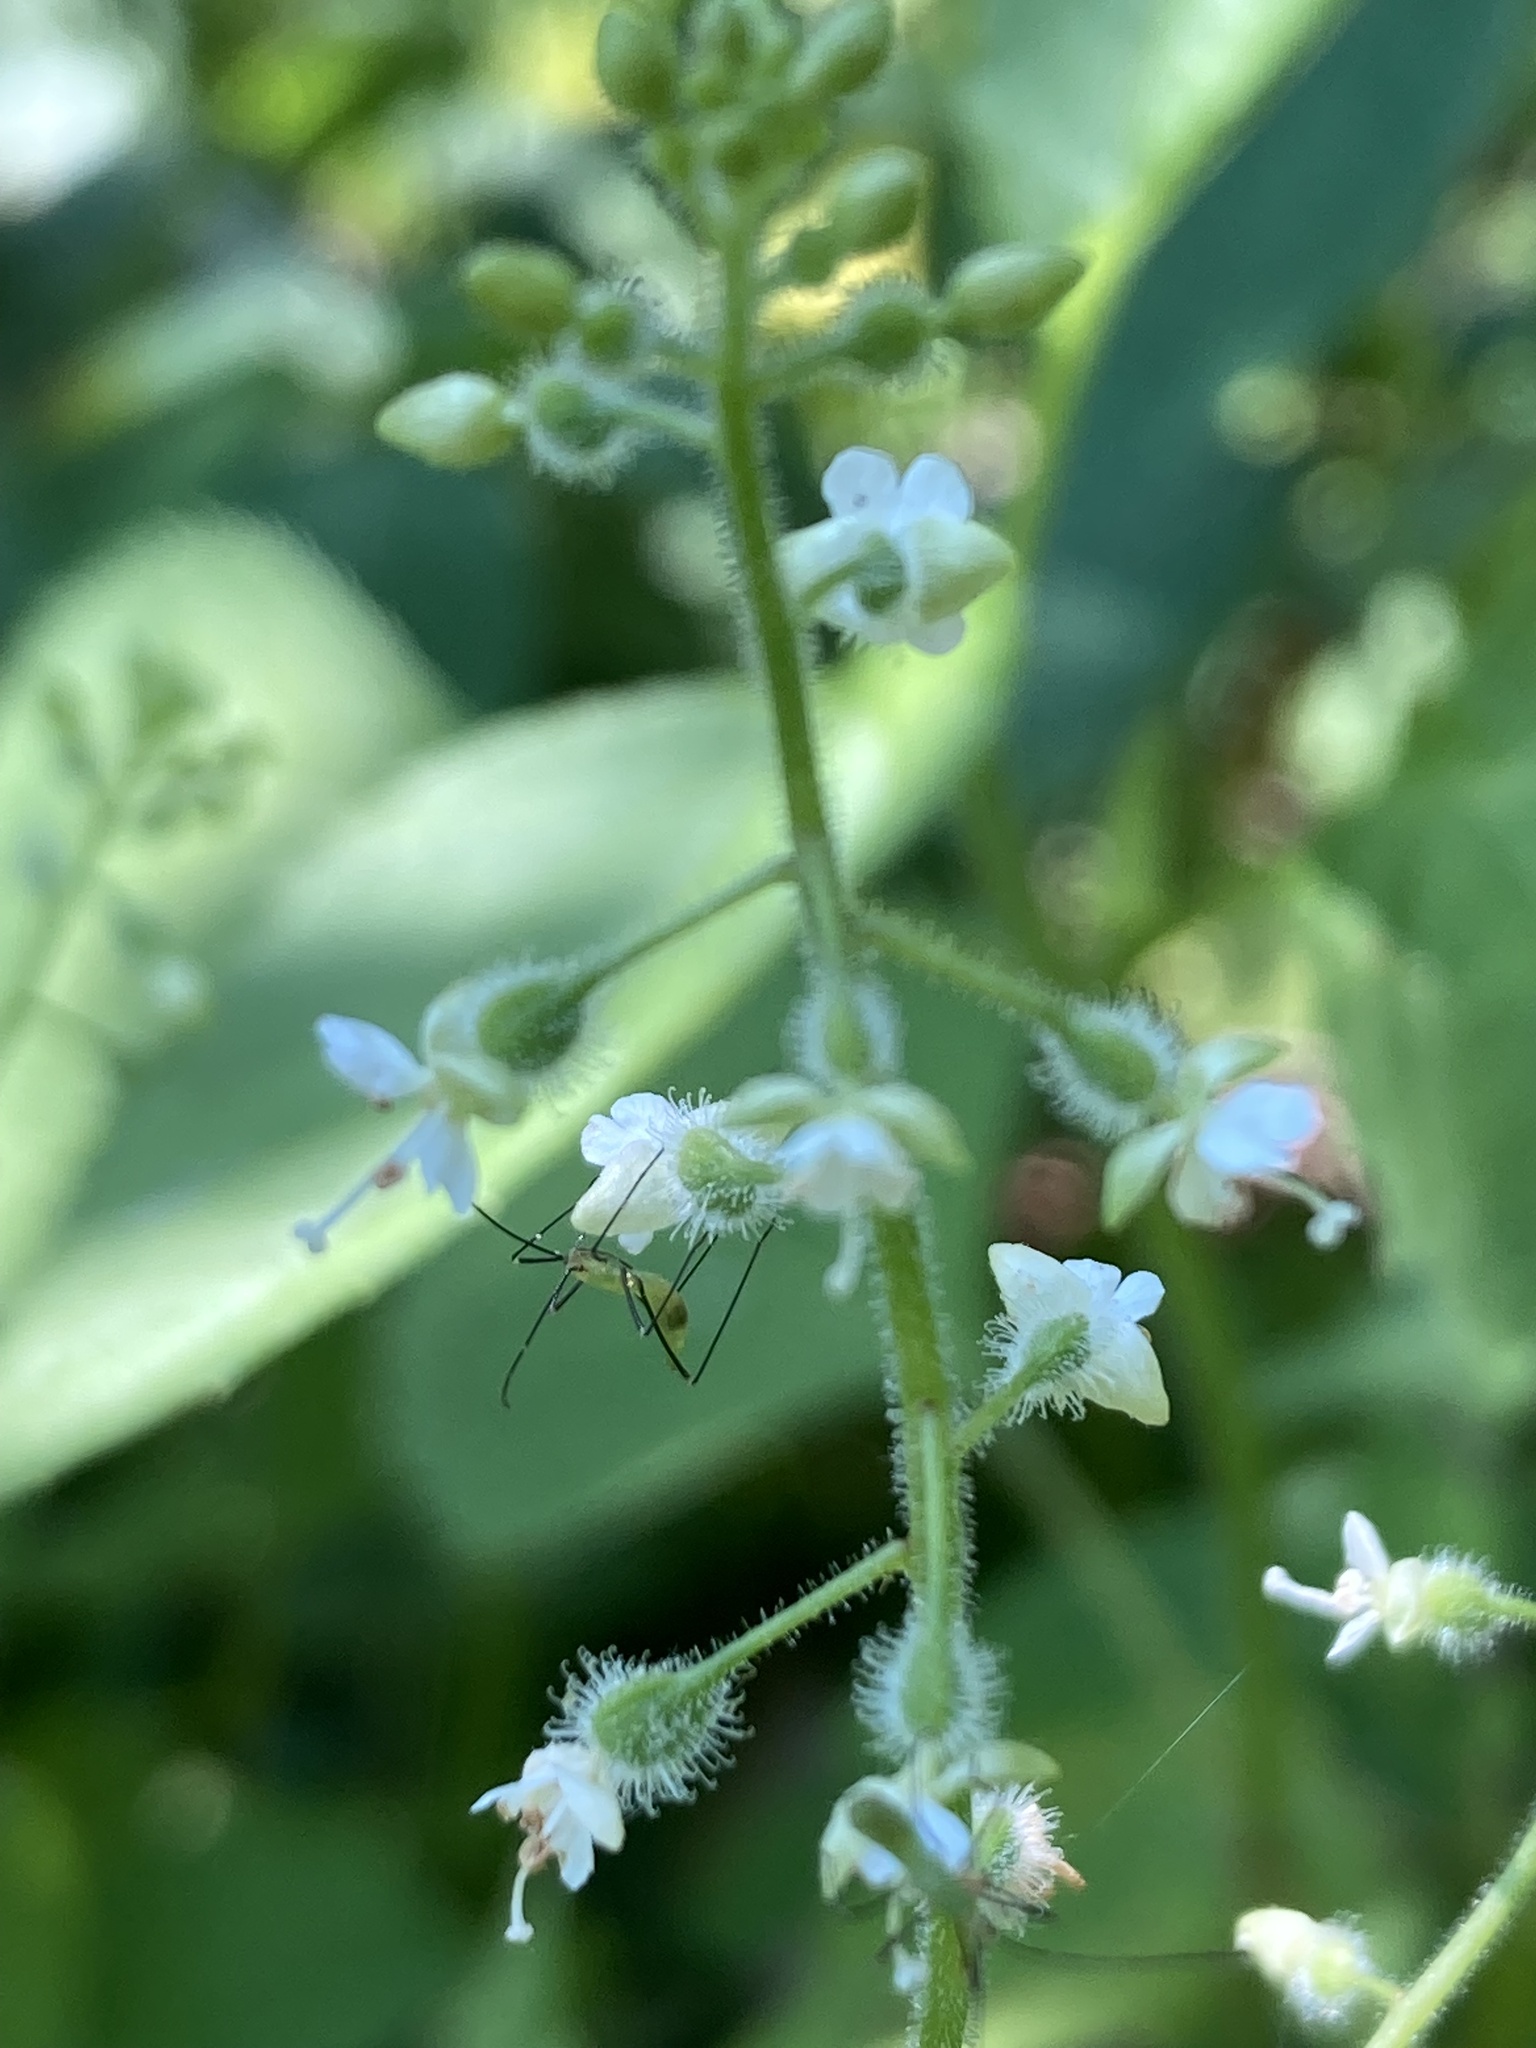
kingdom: Plantae
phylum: Tracheophyta
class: Magnoliopsida
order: Myrtales
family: Onagraceae
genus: Circaea
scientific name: Circaea canadensis
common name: Broad-leaved enchanter's nightshade
